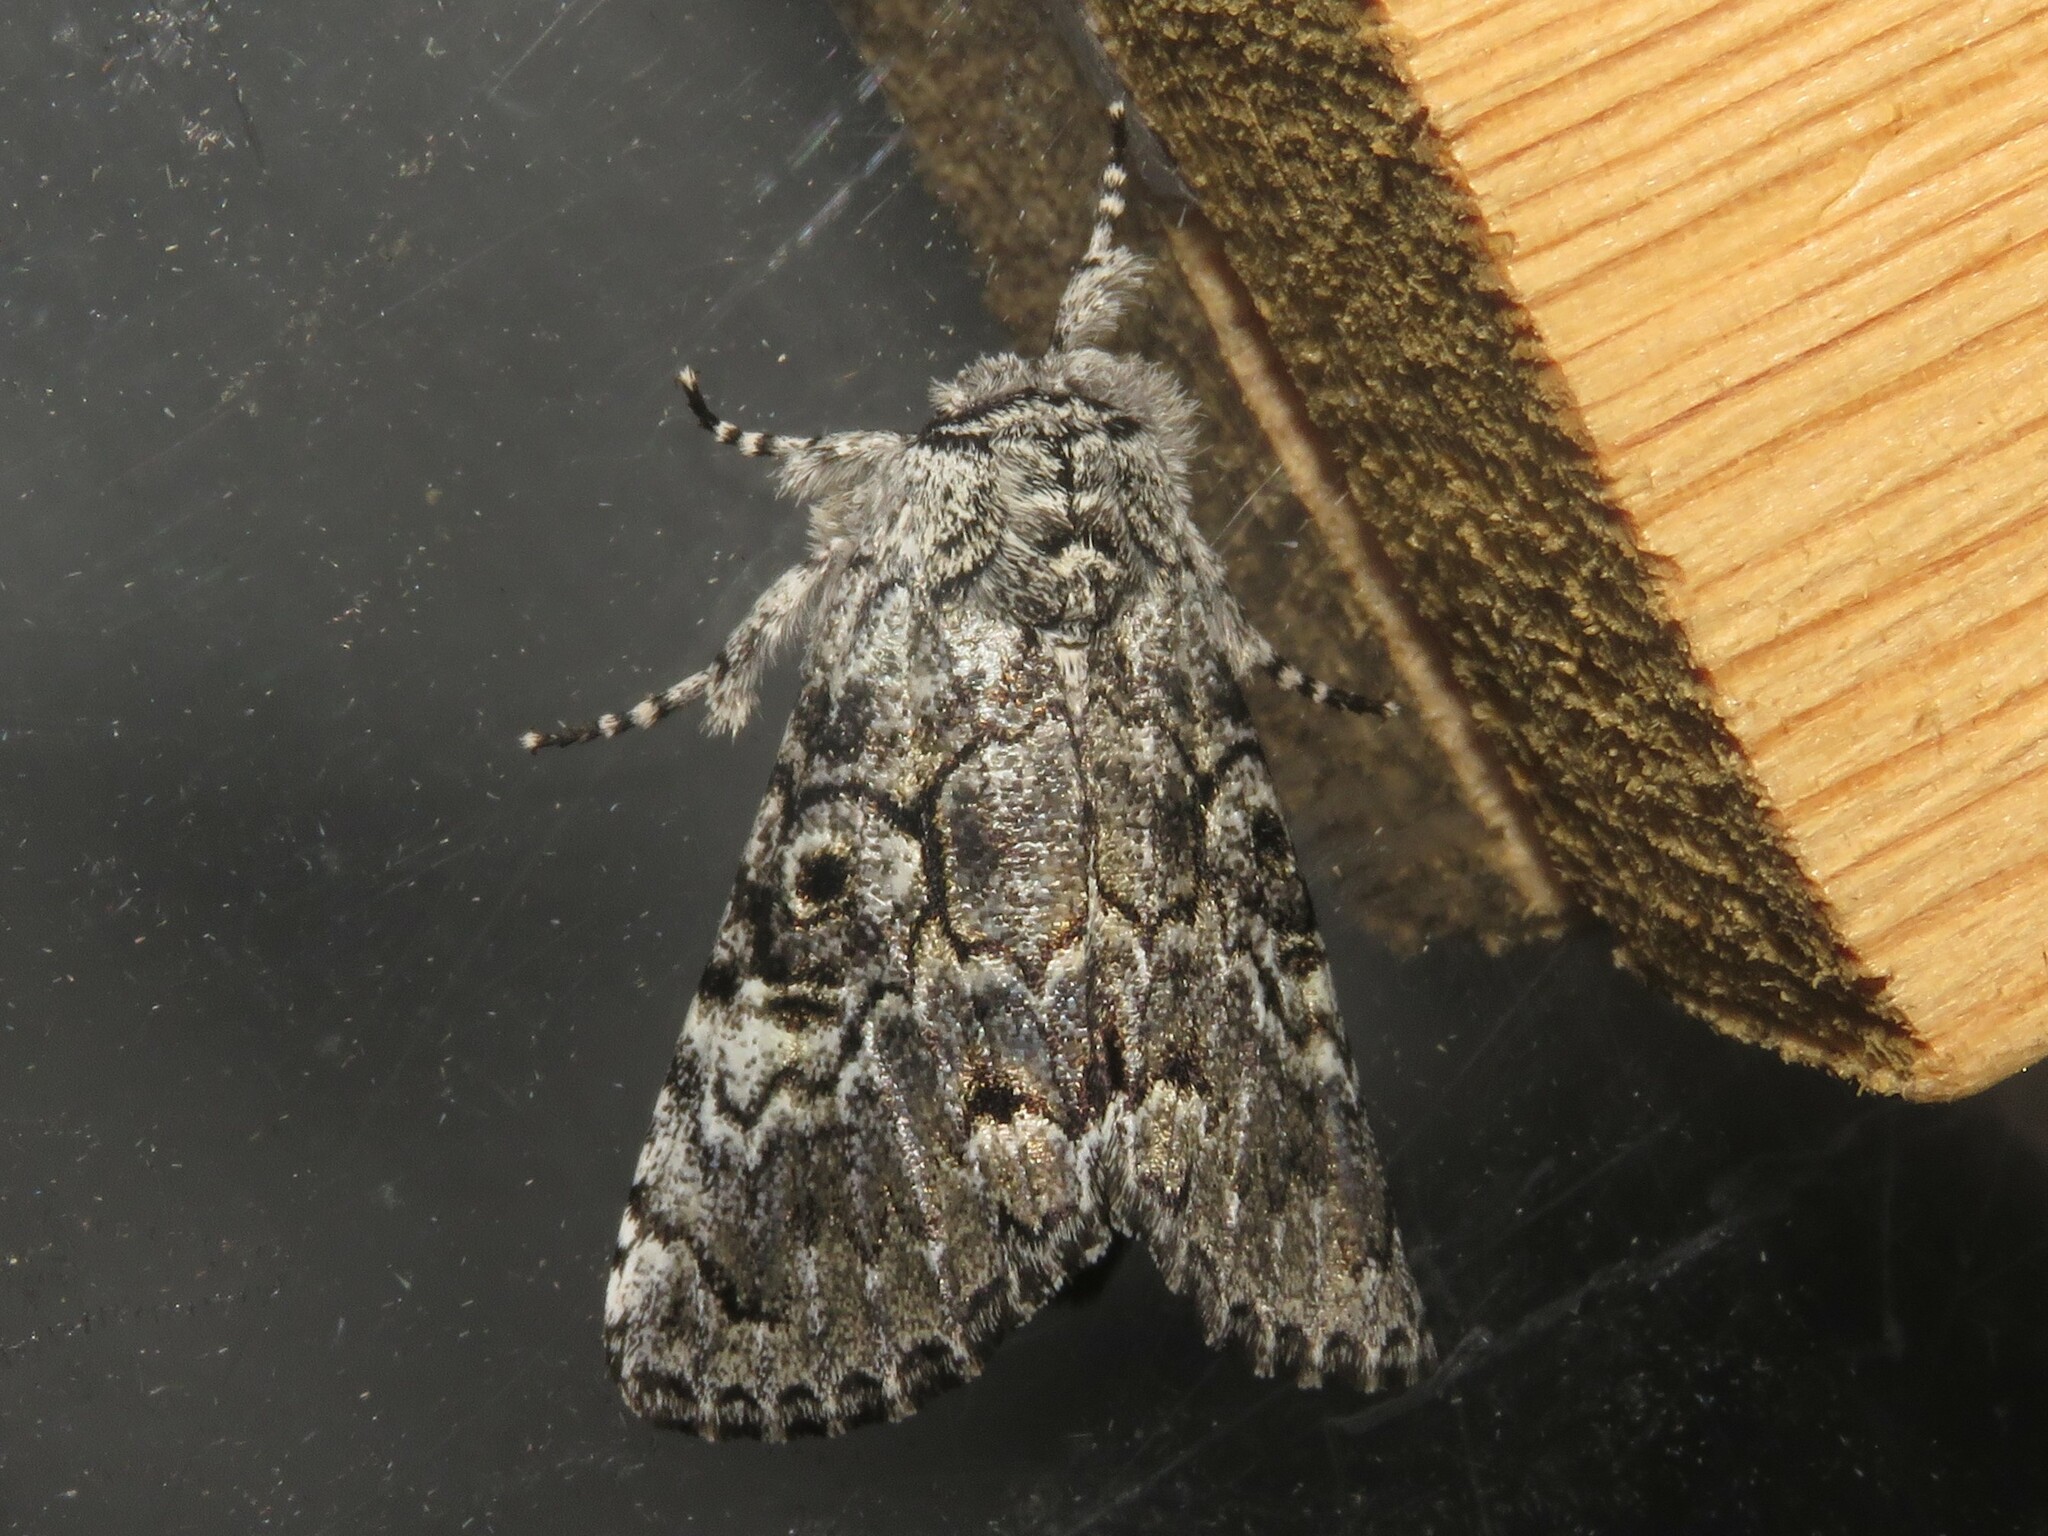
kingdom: Animalia
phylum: Arthropoda
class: Insecta
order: Lepidoptera
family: Noctuidae
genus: Charadra
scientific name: Charadra deridens
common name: Marbled tuffet
